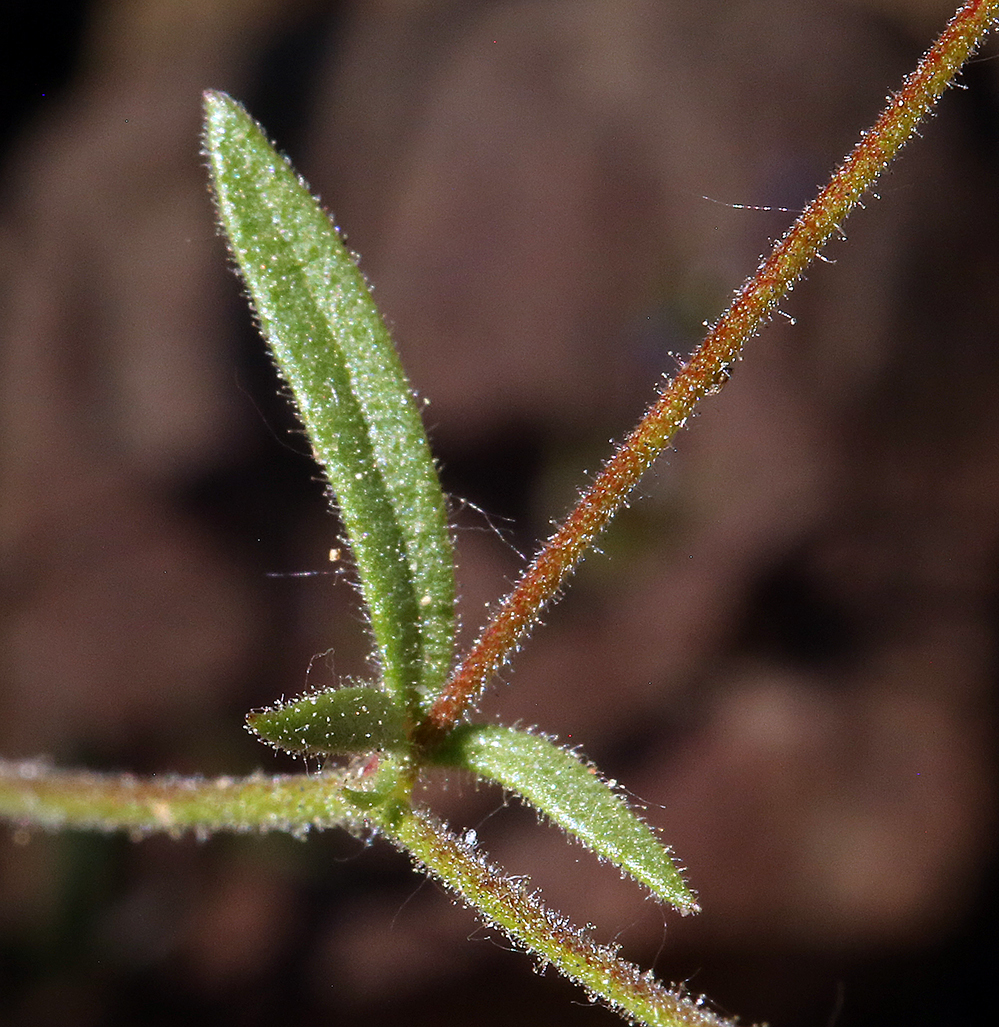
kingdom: Plantae
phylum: Tracheophyta
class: Magnoliopsida
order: Ericales
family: Polemoniaceae
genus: Allophyllum
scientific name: Allophyllum gilioides
